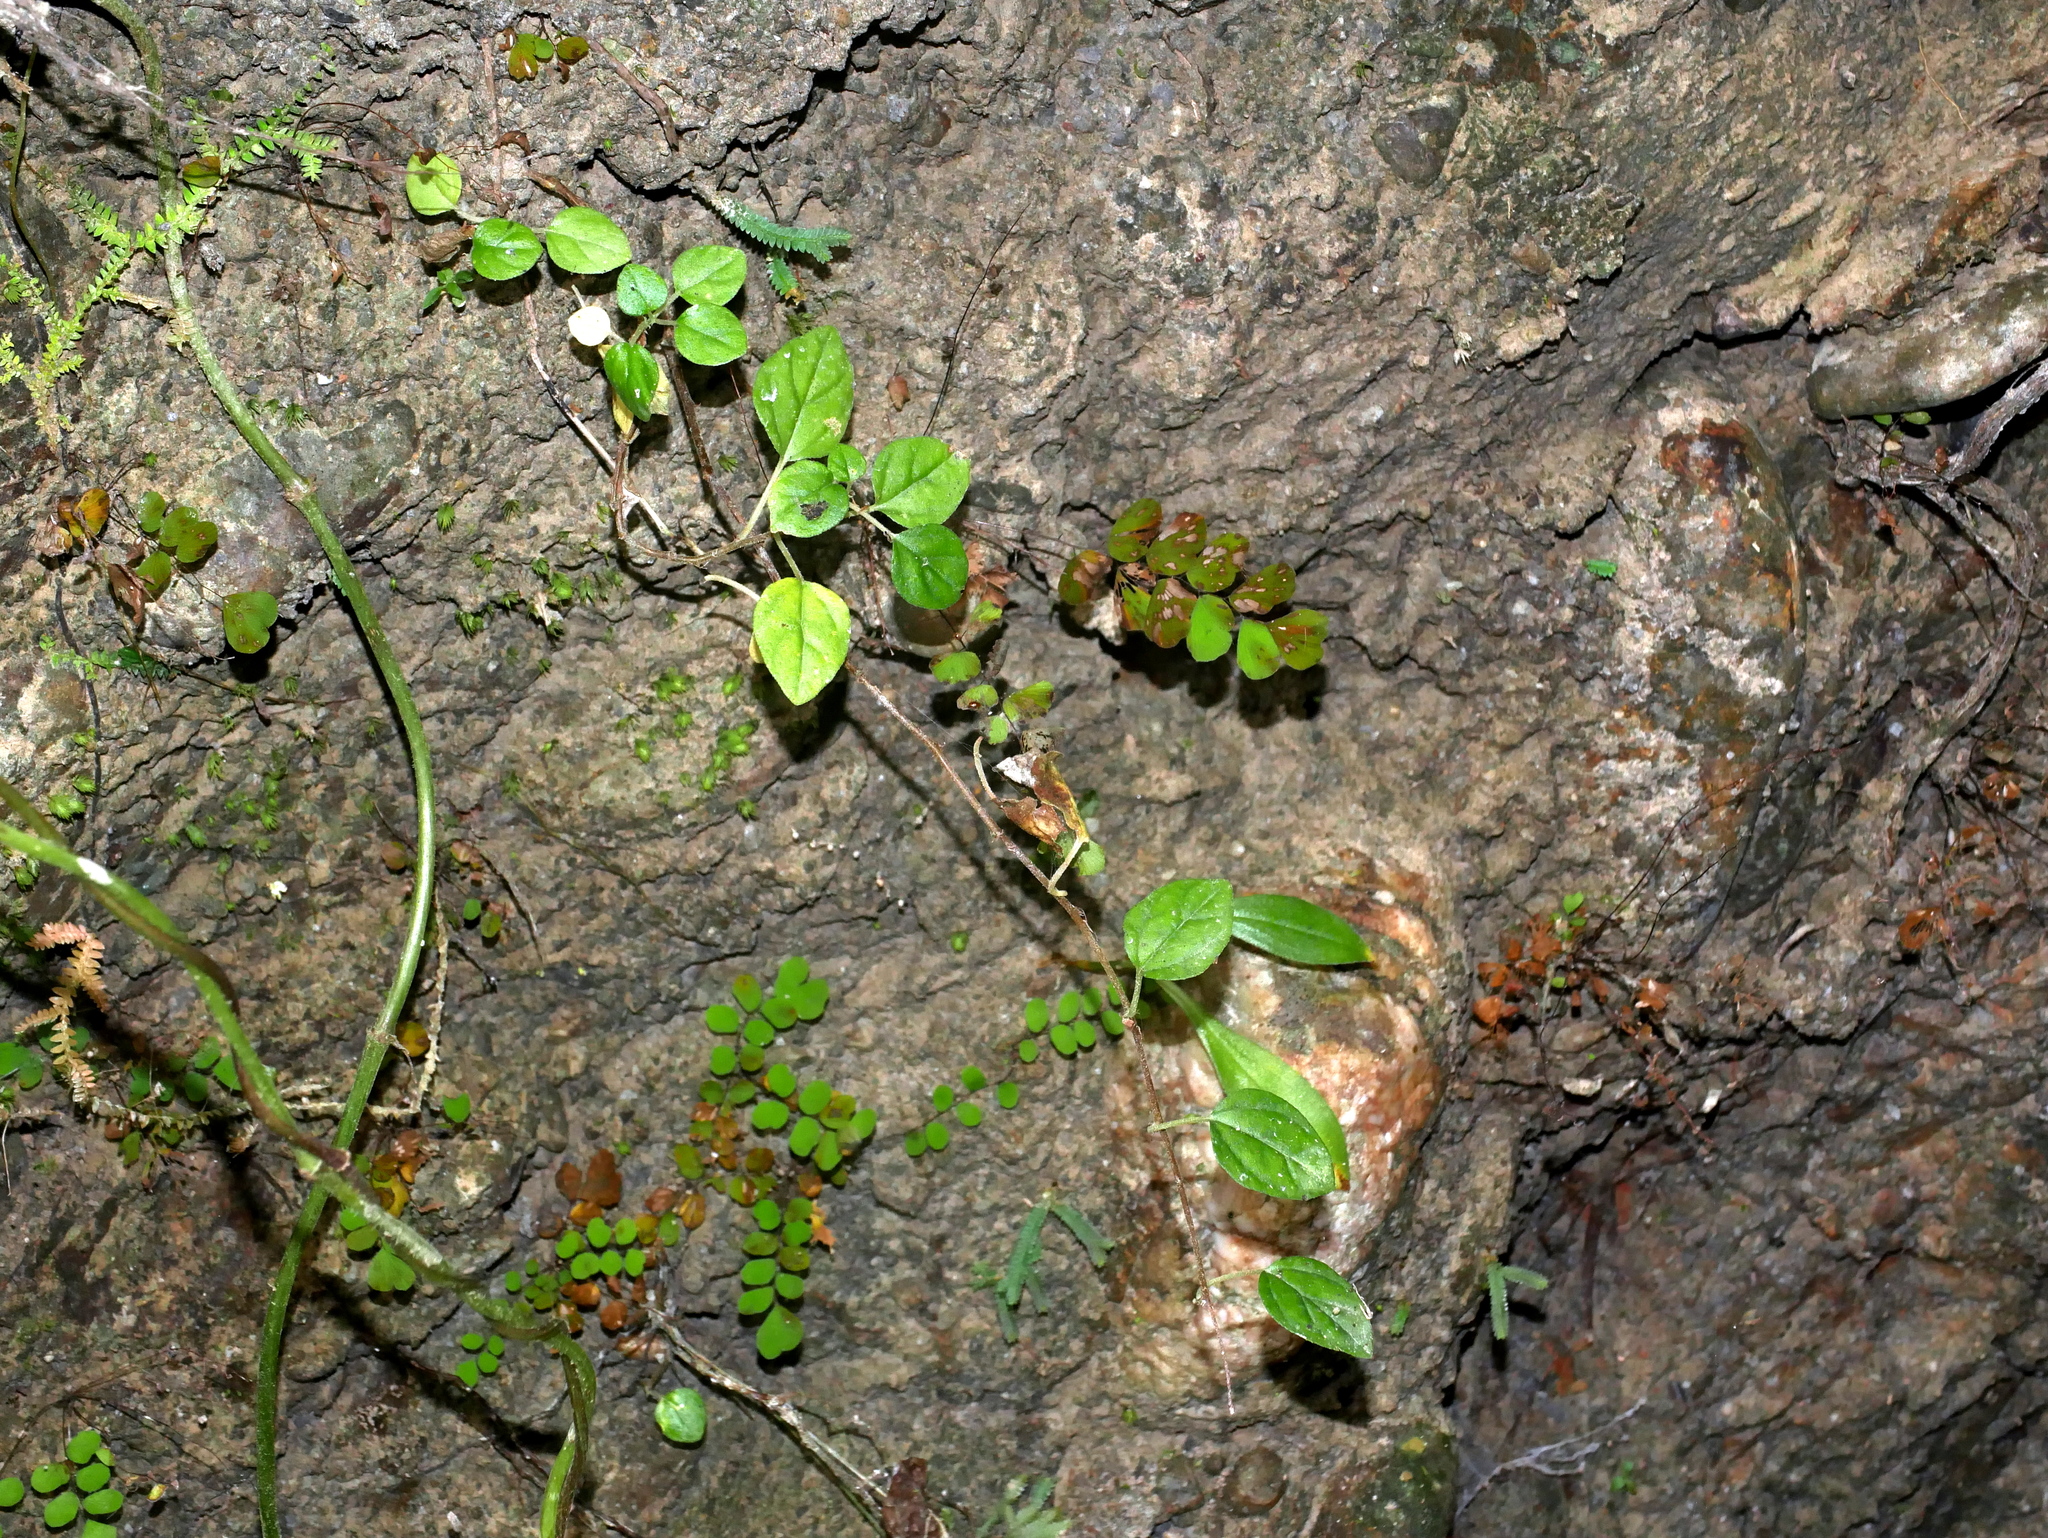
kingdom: Plantae
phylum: Tracheophyta
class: Magnoliopsida
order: Rosales
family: Urticaceae
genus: Pouzolzia
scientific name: Pouzolzia taiwaniana
